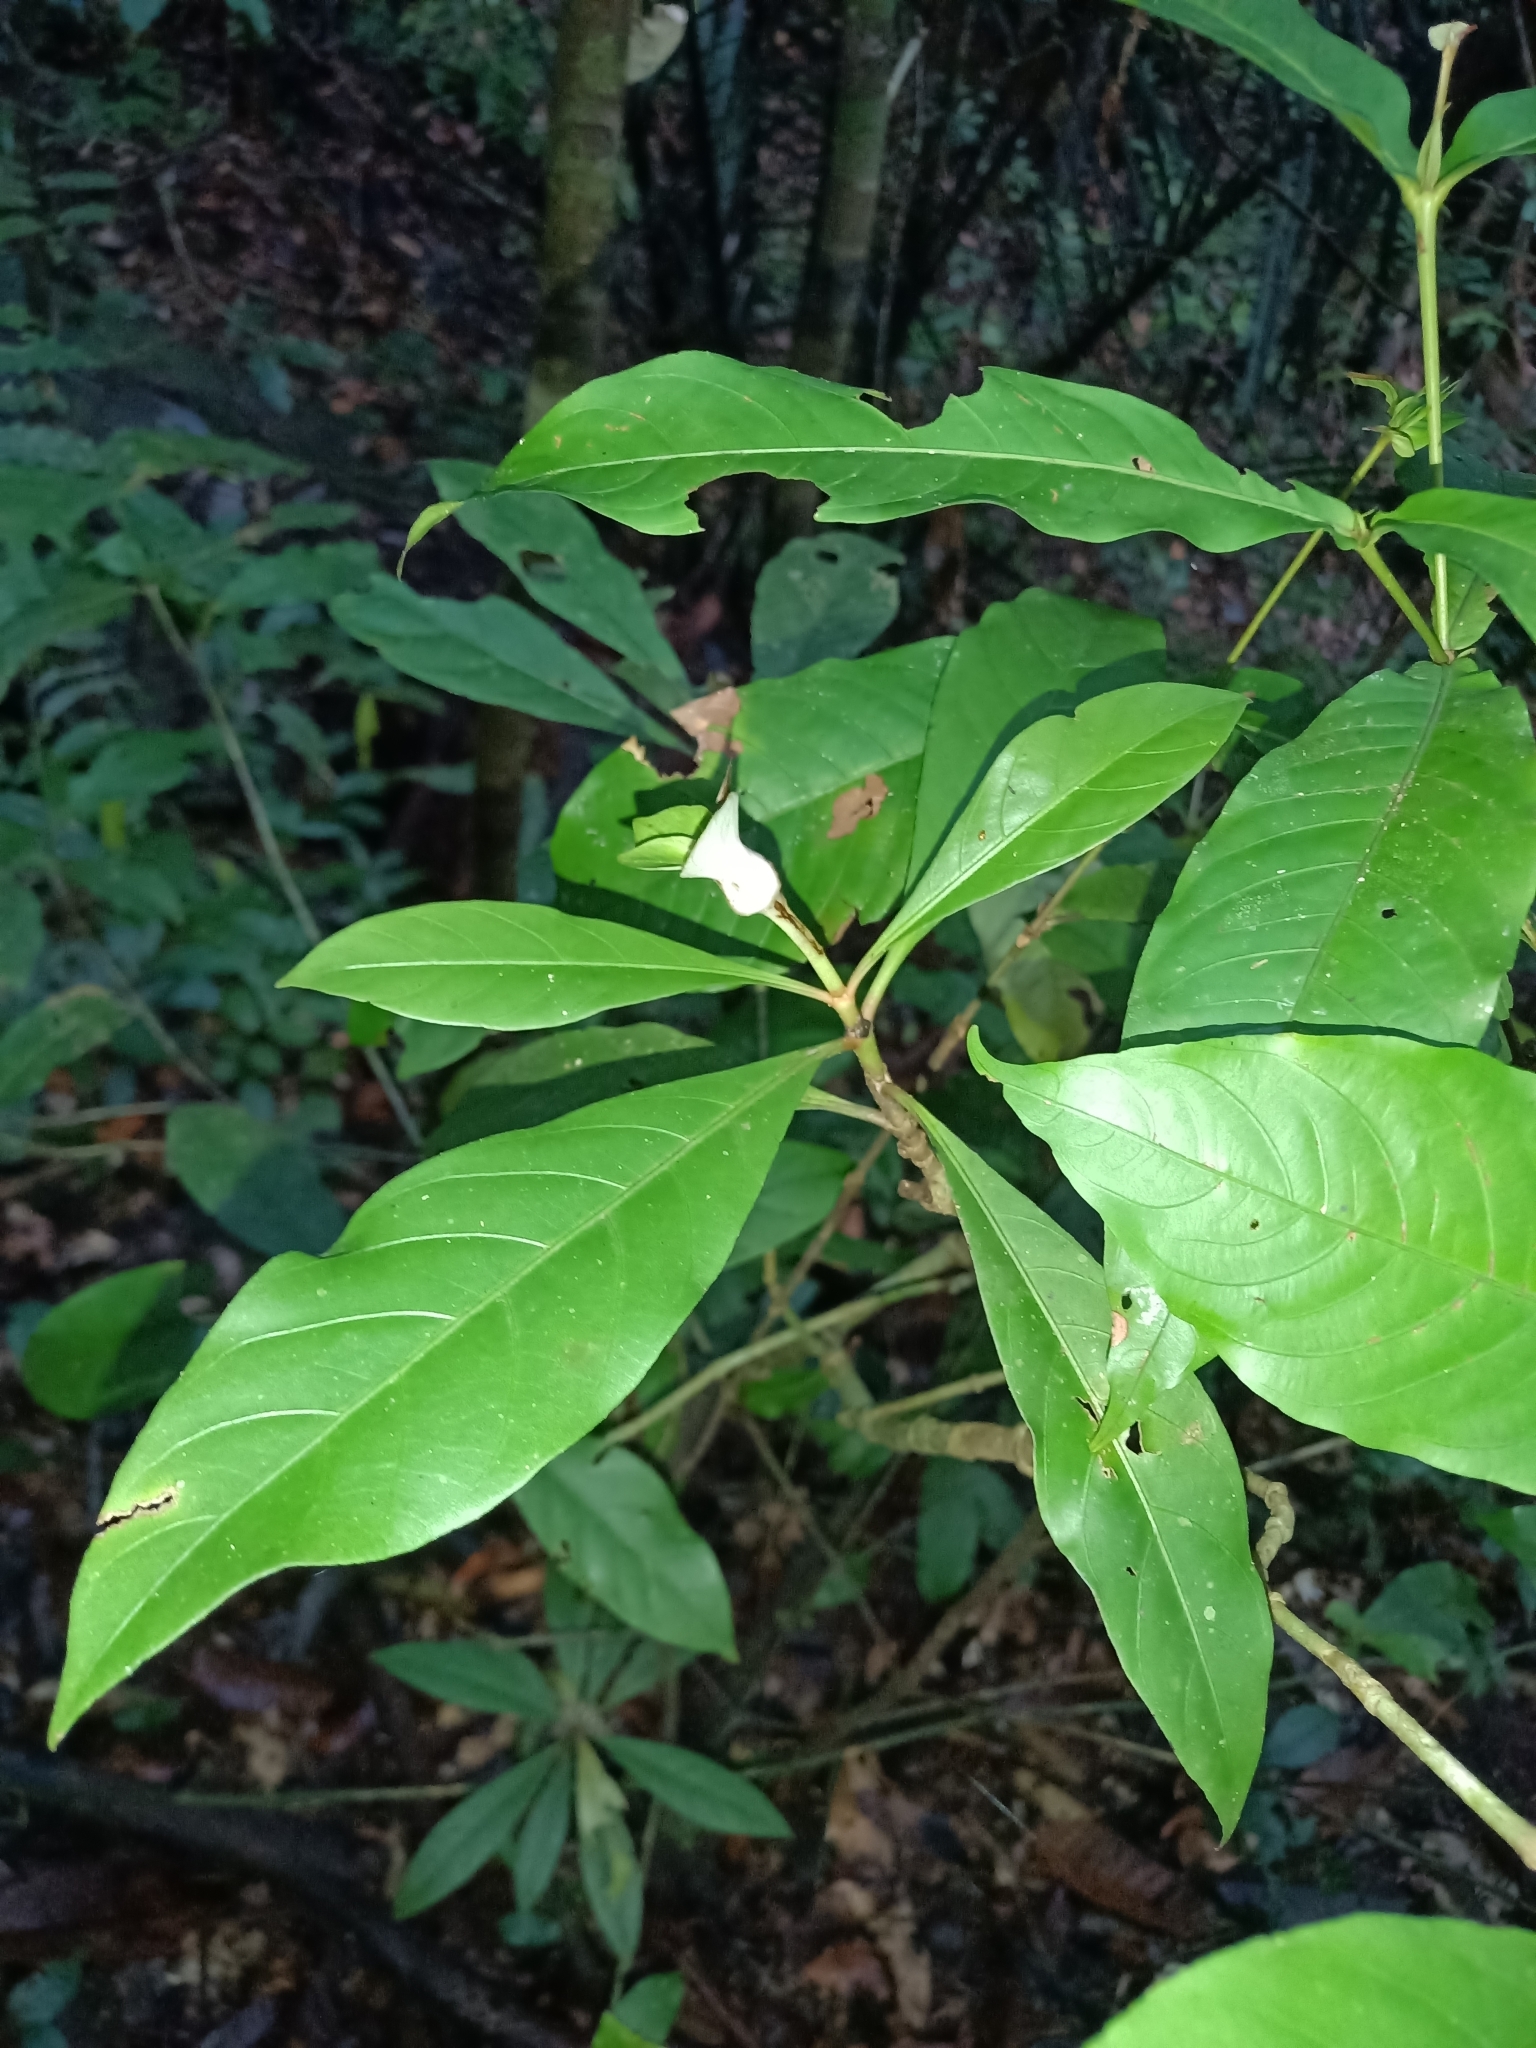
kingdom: Plantae
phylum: Tracheophyta
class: Magnoliopsida
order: Gentianales
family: Rubiaceae
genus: Carapichea
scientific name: Carapichea guianensis
